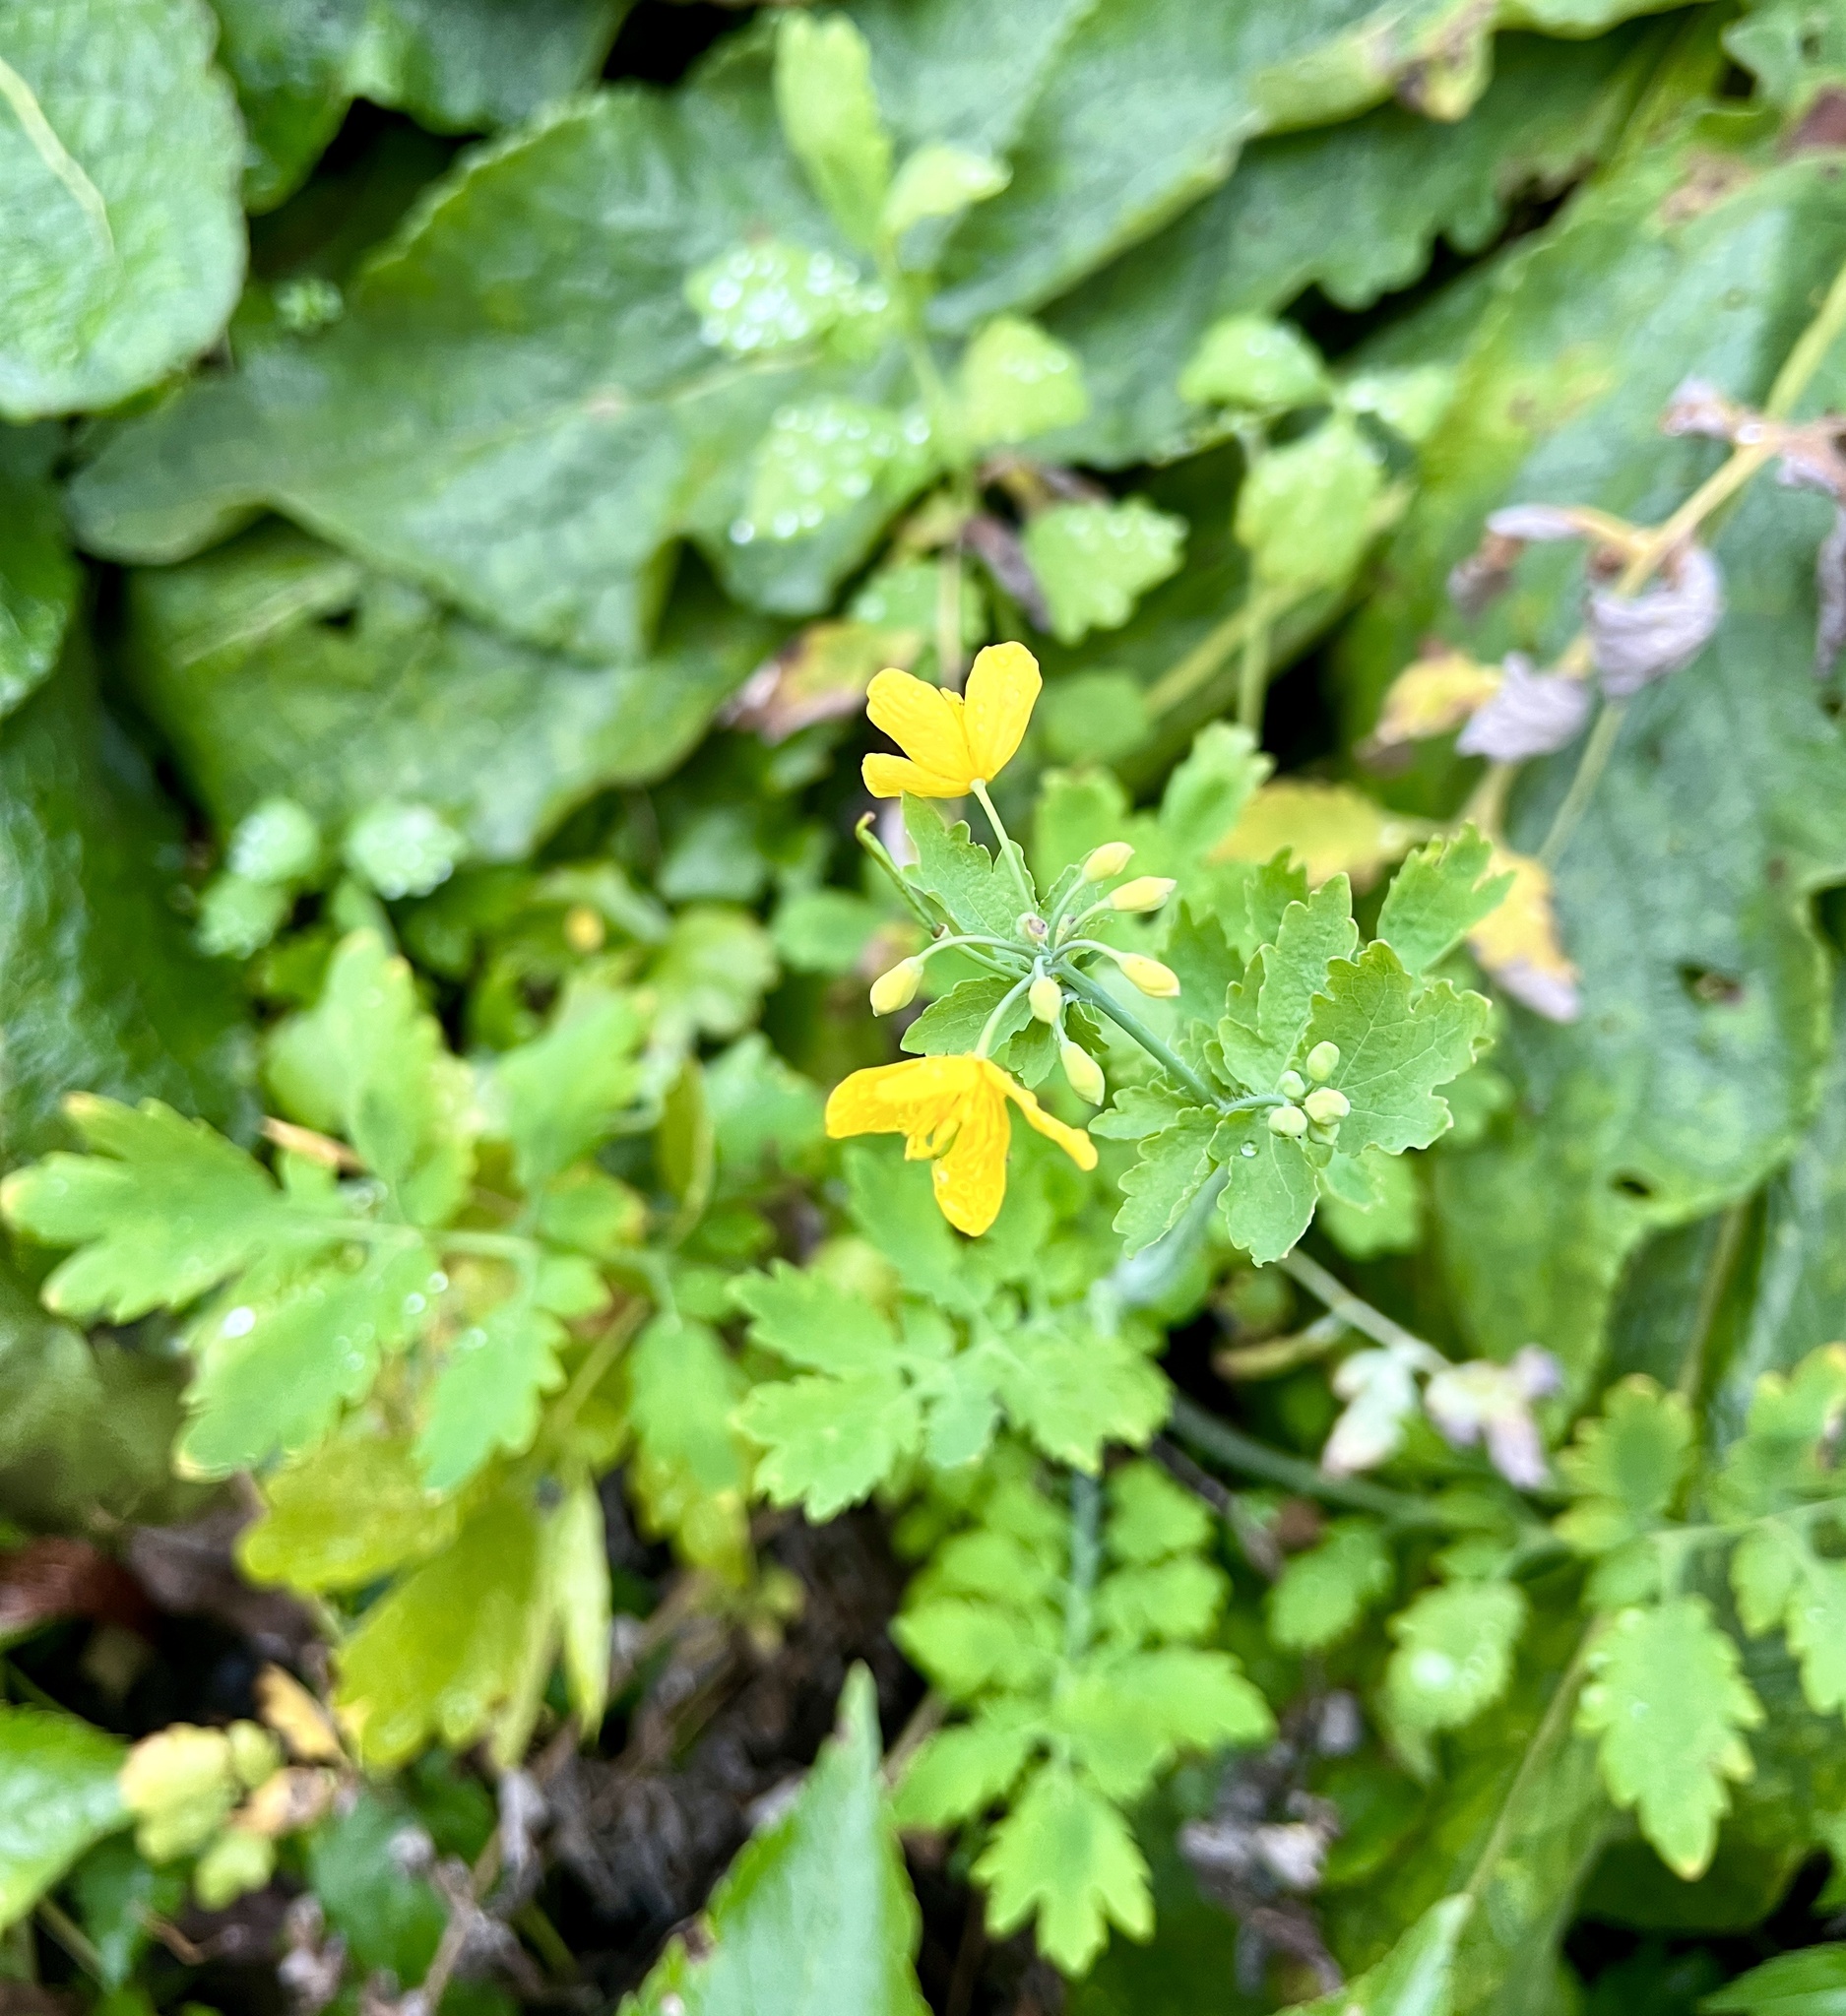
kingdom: Plantae
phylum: Tracheophyta
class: Magnoliopsida
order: Ranunculales
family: Papaveraceae
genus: Chelidonium
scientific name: Chelidonium majus
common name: Greater celandine
